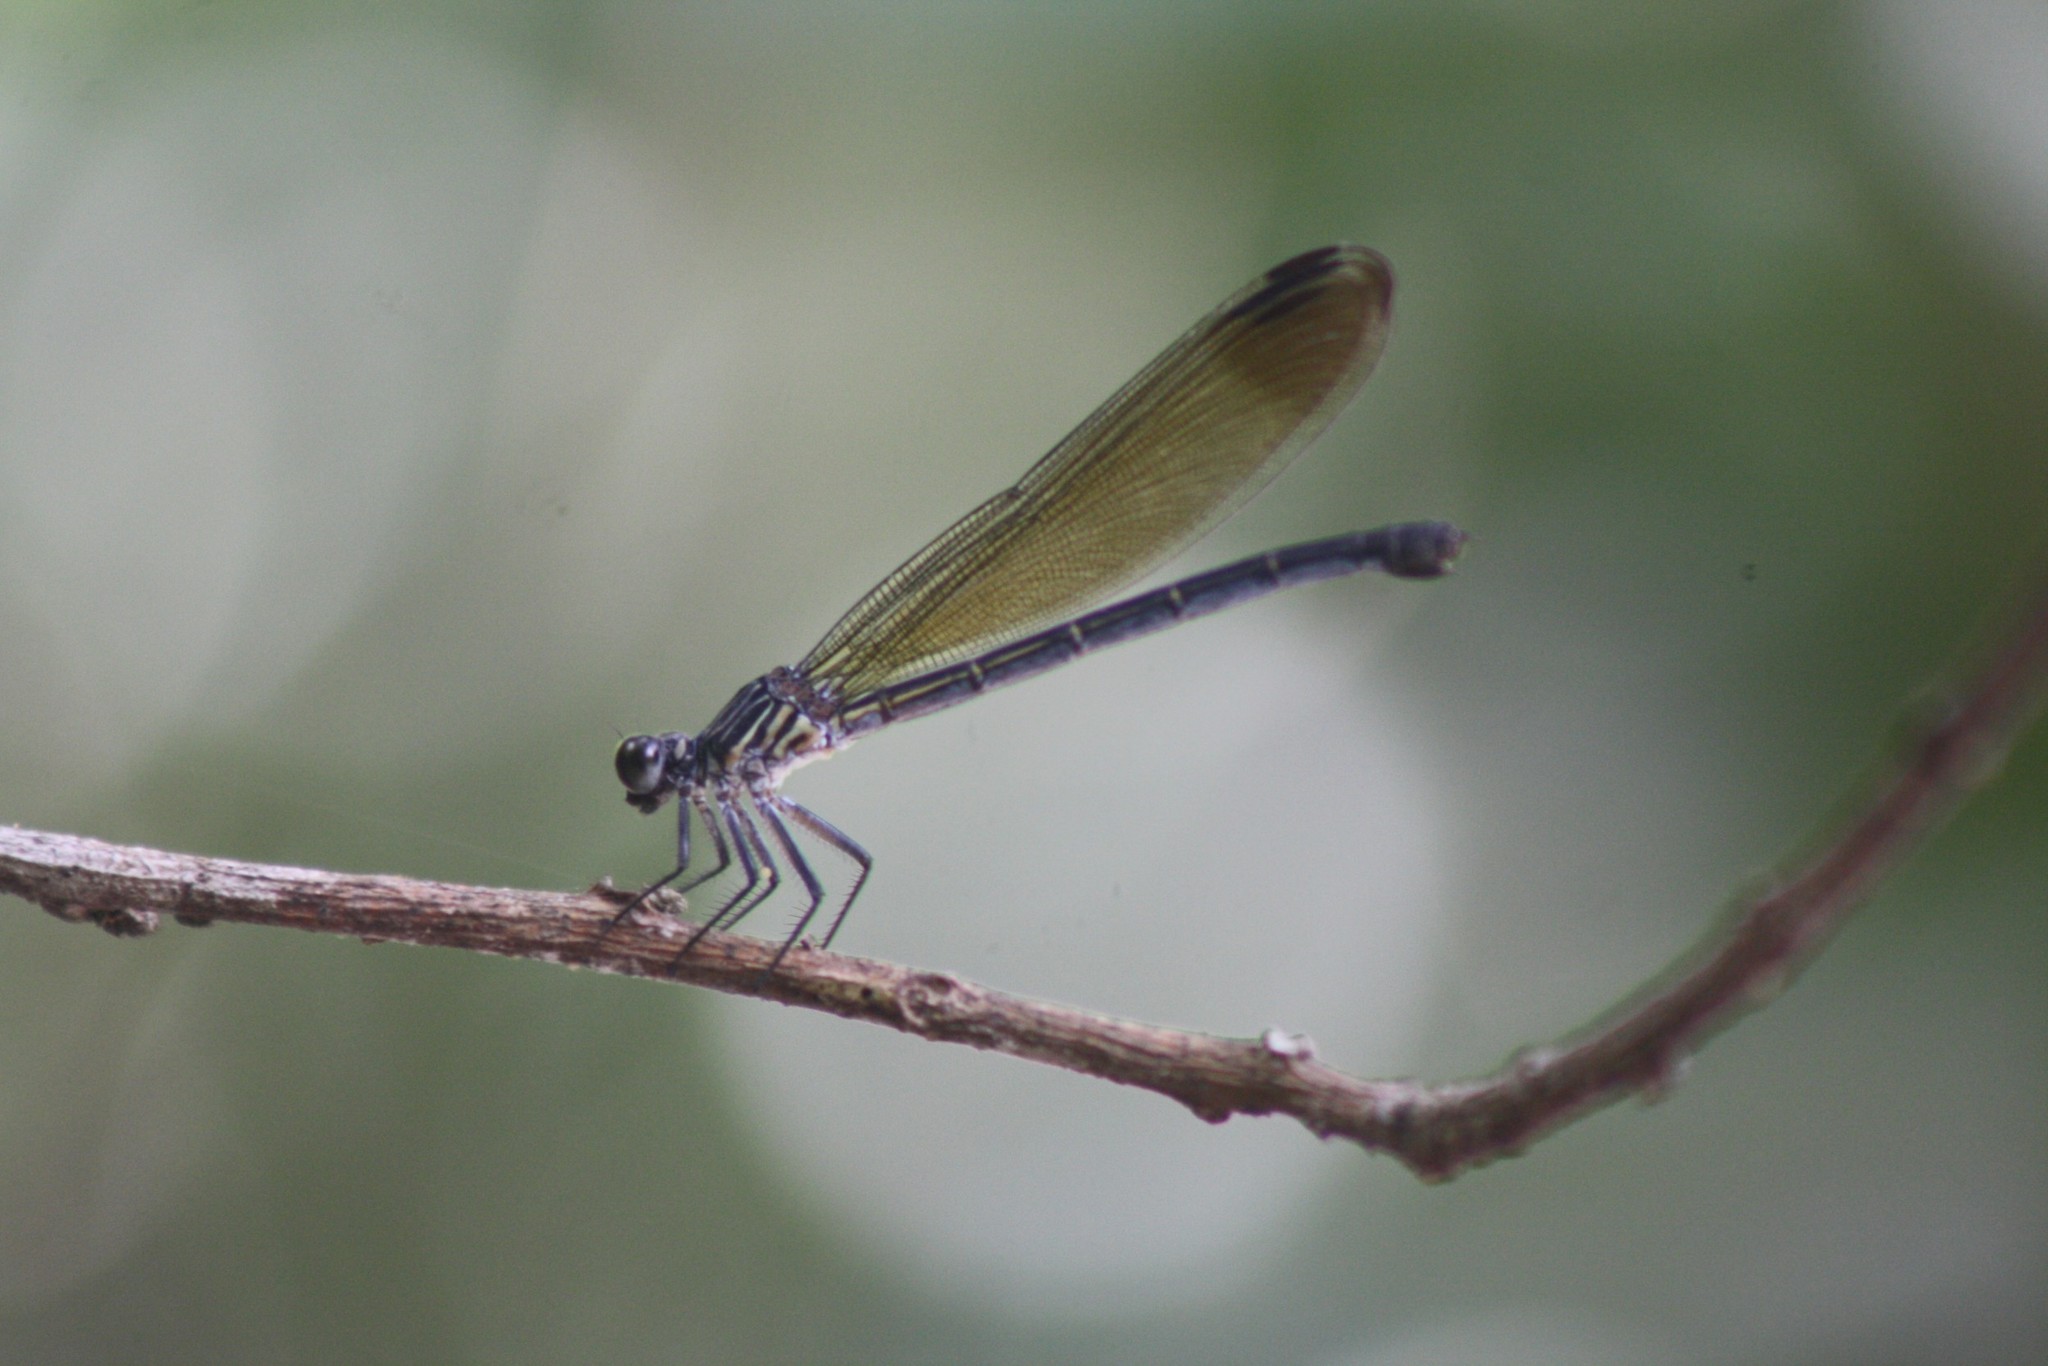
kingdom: Animalia
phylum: Arthropoda
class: Insecta
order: Odonata
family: Euphaeidae
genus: Euphaea
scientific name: Euphaea dispar
